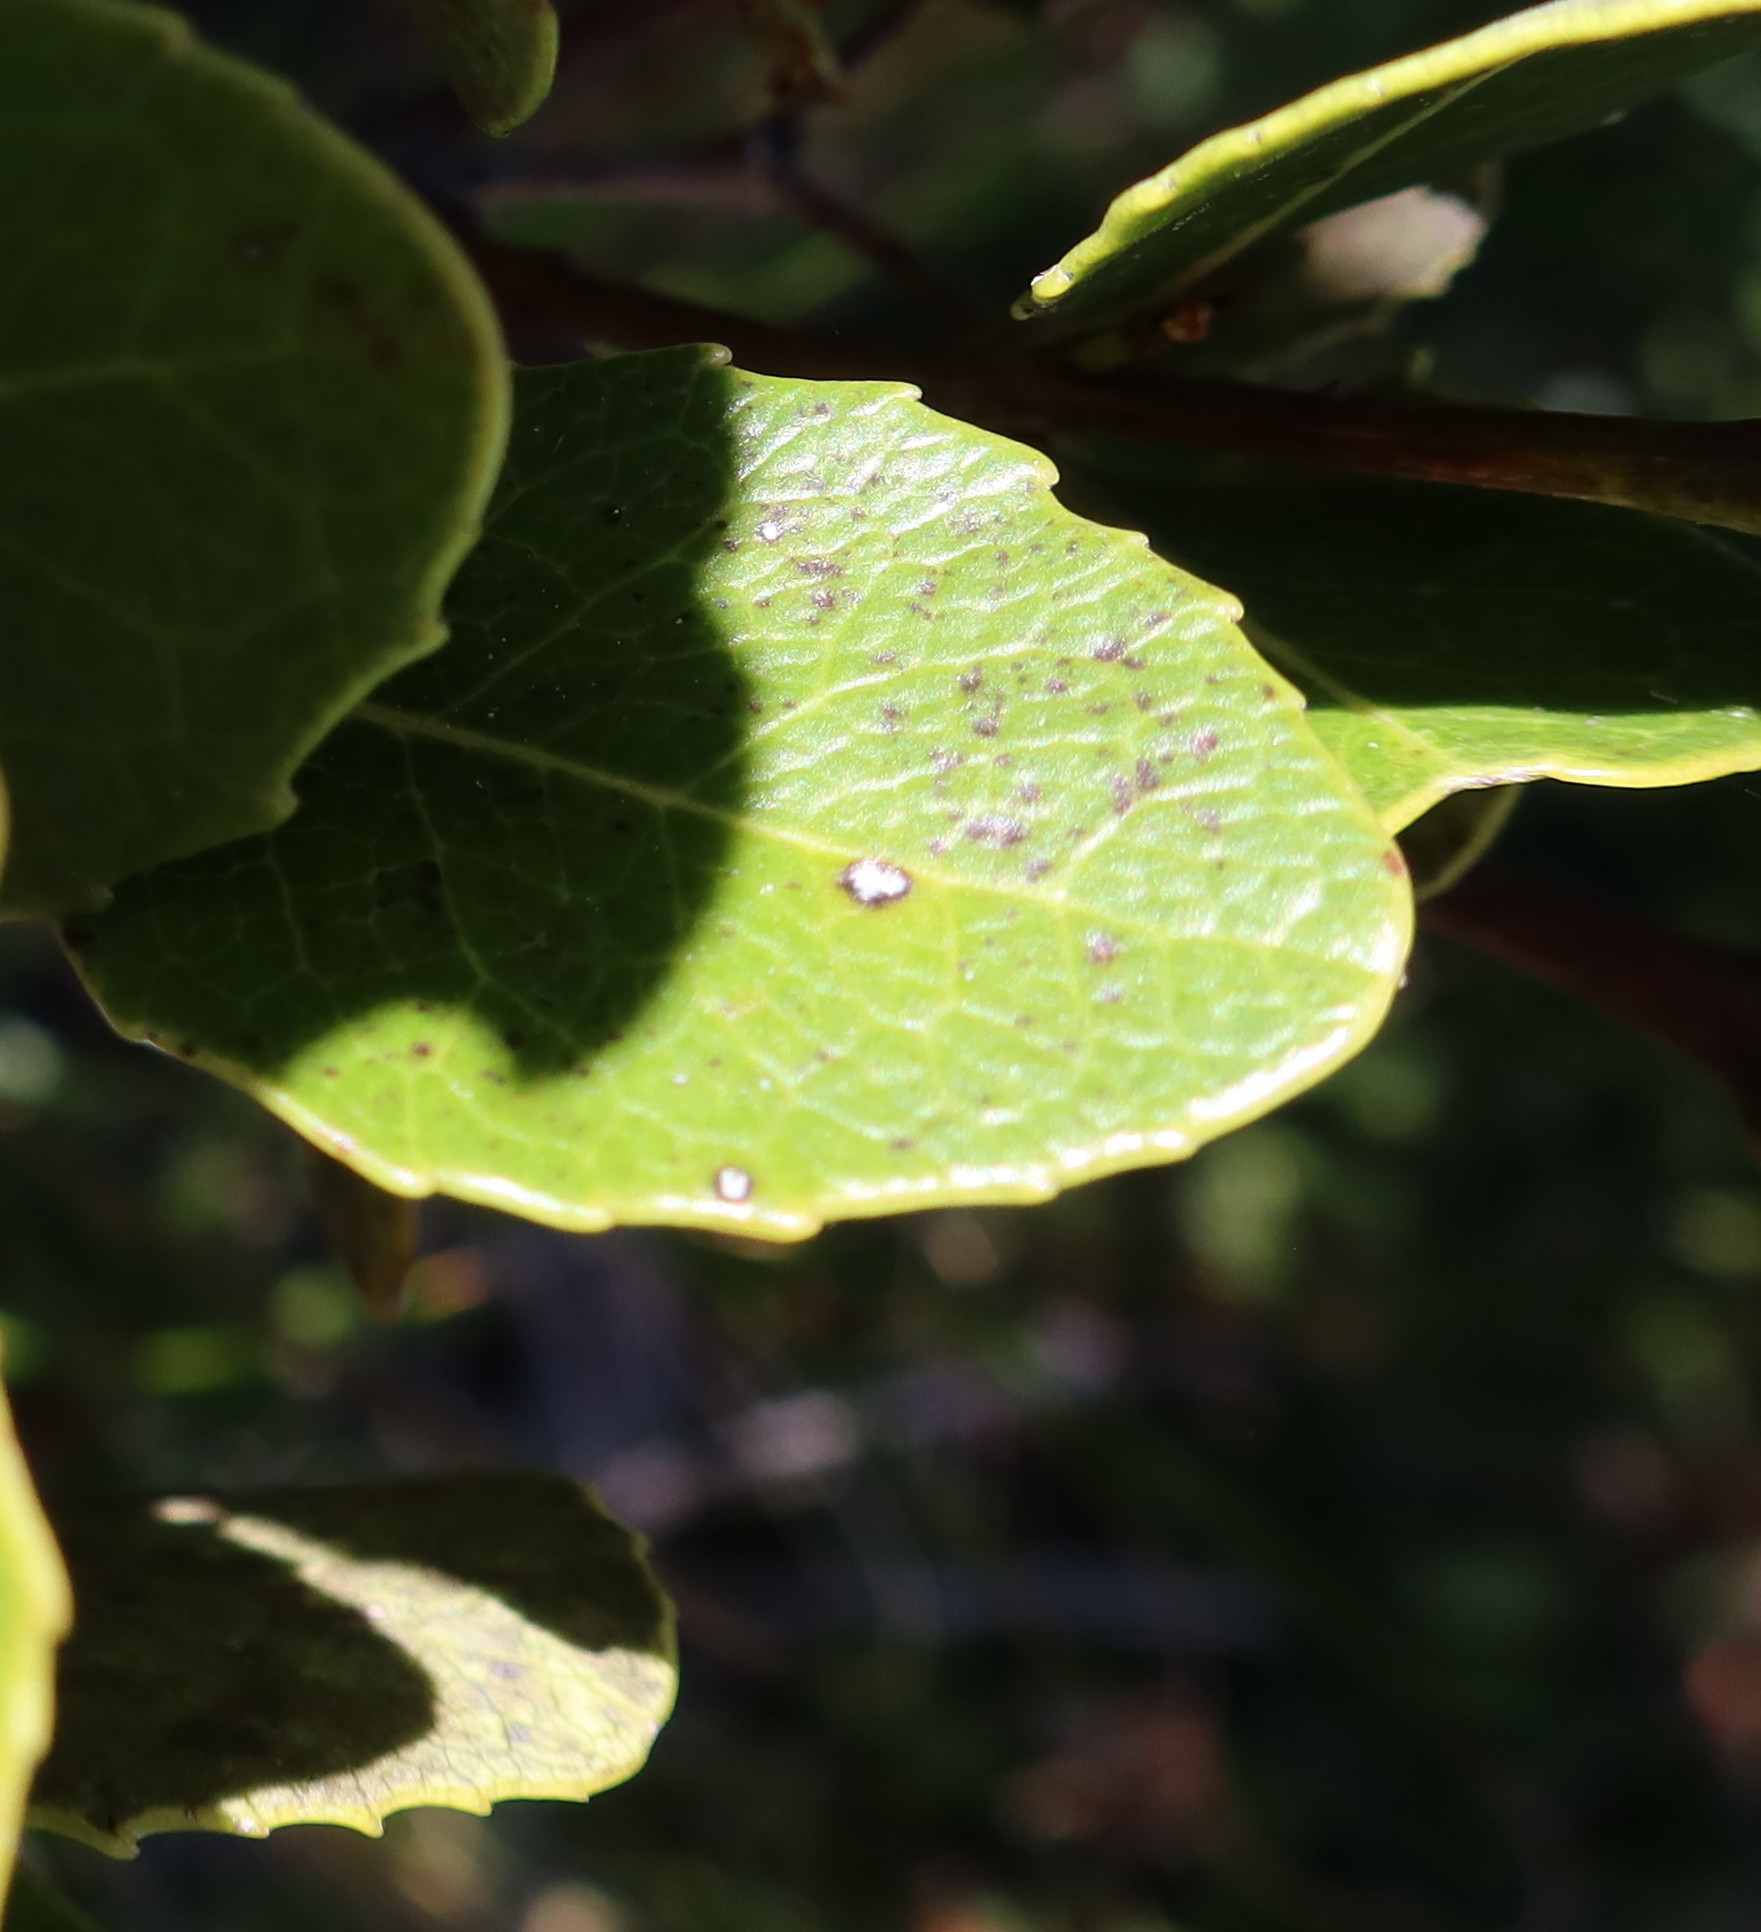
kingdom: Plantae
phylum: Tracheophyta
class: Magnoliopsida
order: Celastrales
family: Celastraceae
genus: Cassine
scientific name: Cassine peragua
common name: Cape saffron
